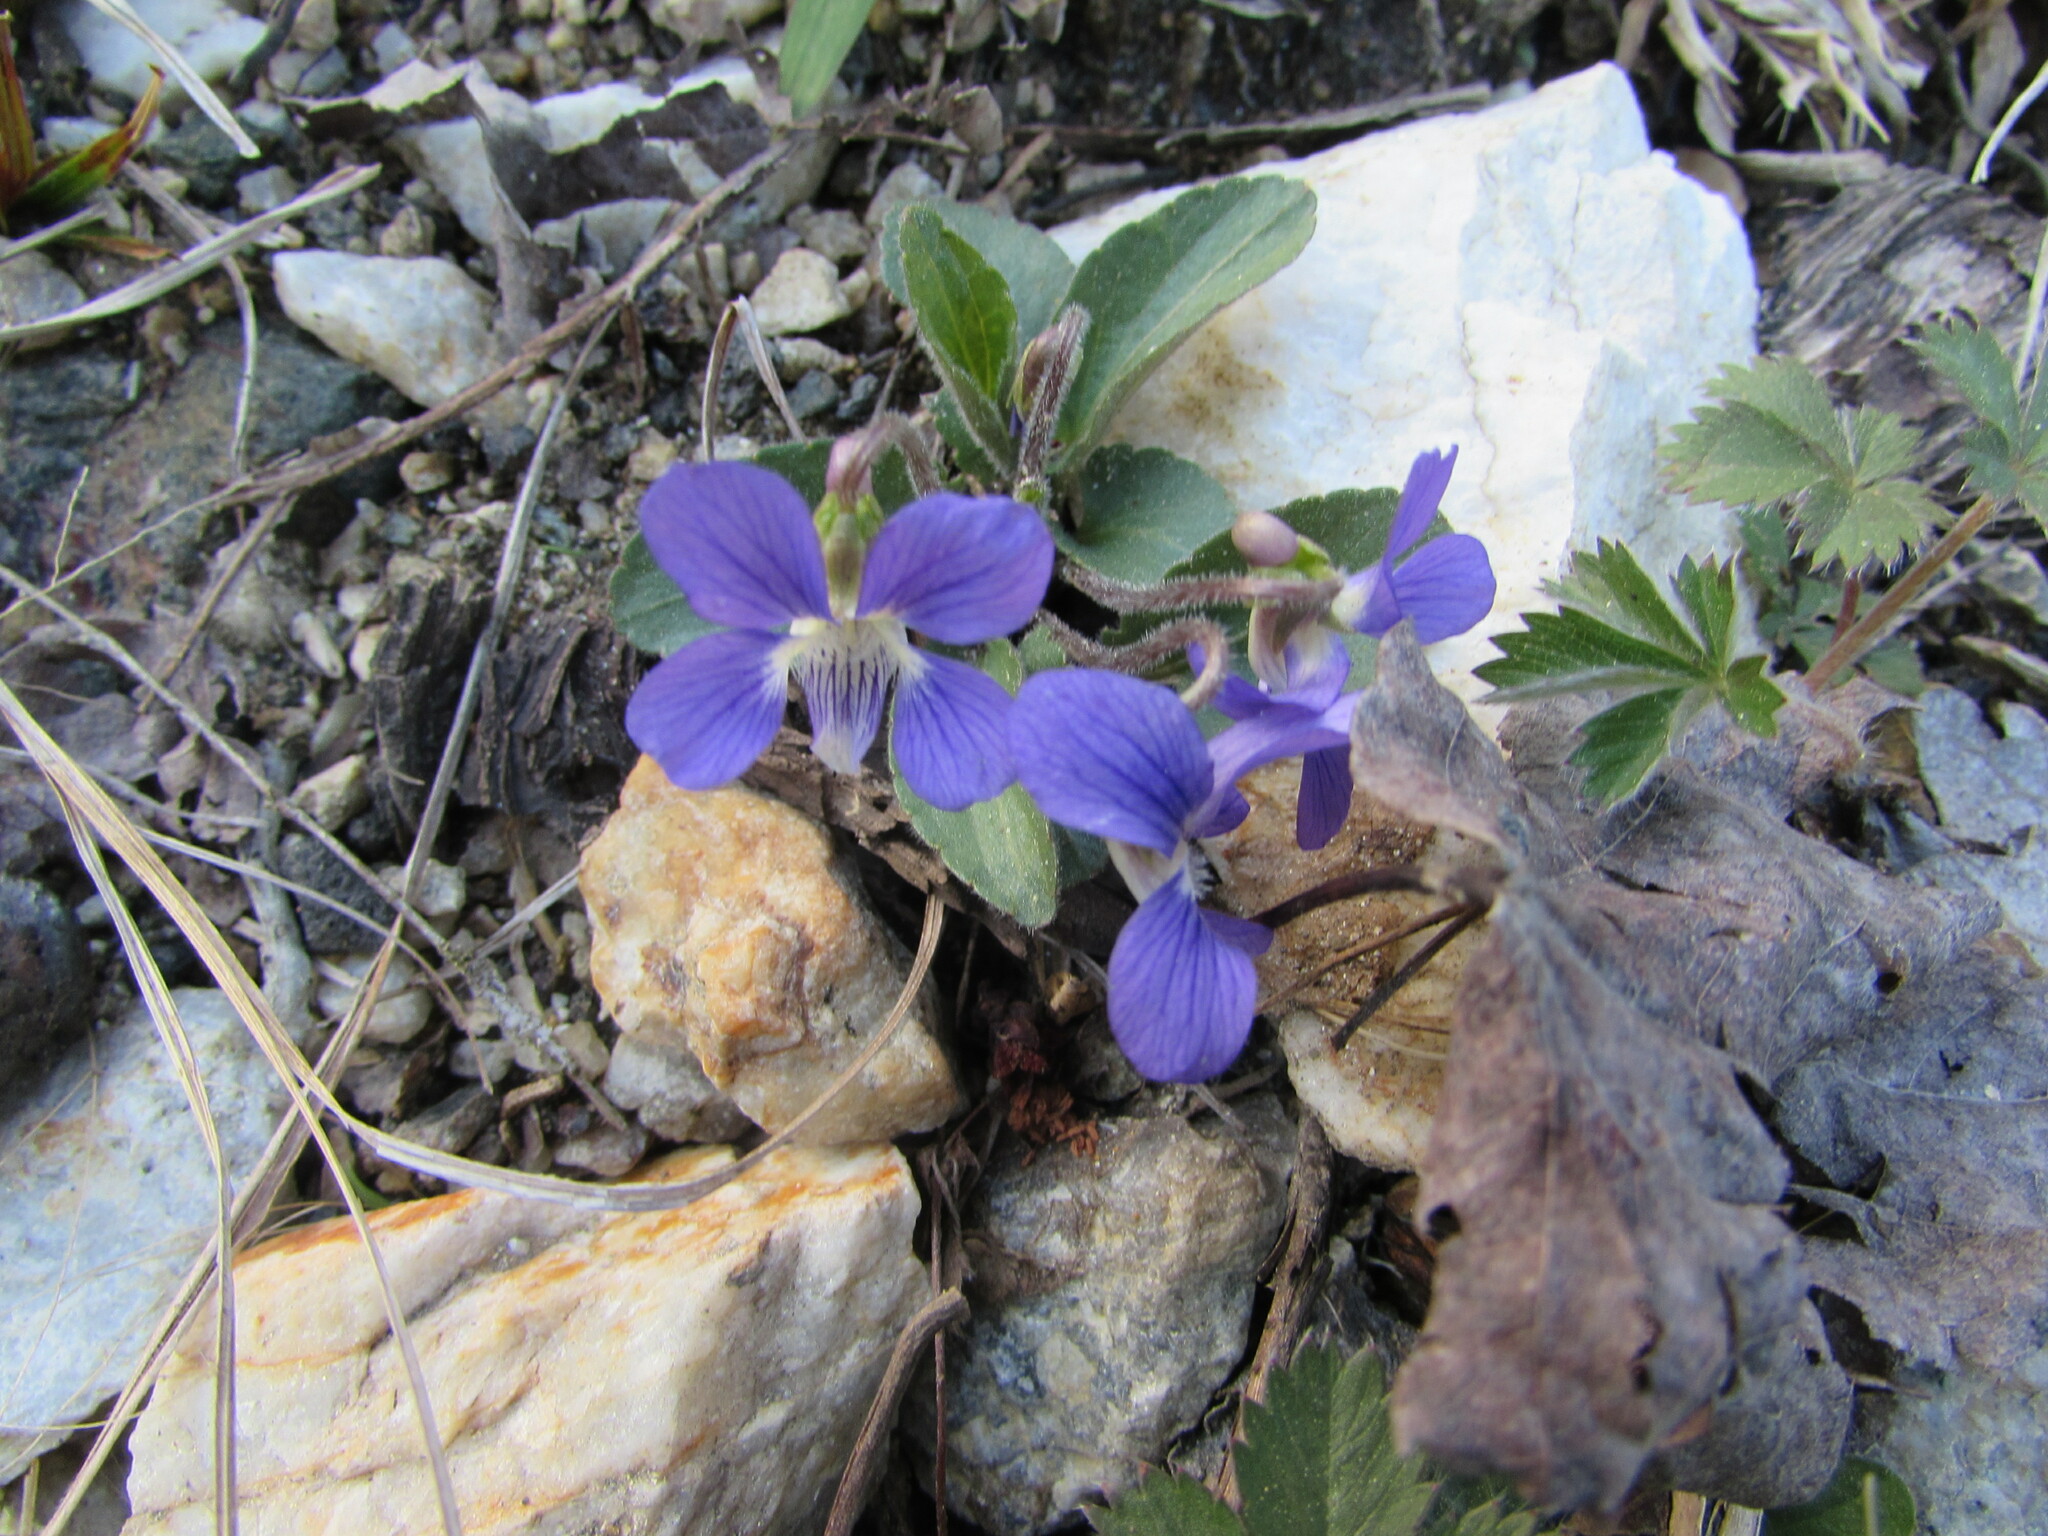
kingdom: Plantae
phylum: Tracheophyta
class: Magnoliopsida
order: Malpighiales
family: Violaceae
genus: Viola
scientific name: Viola sagittata
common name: Arrowhead violet
